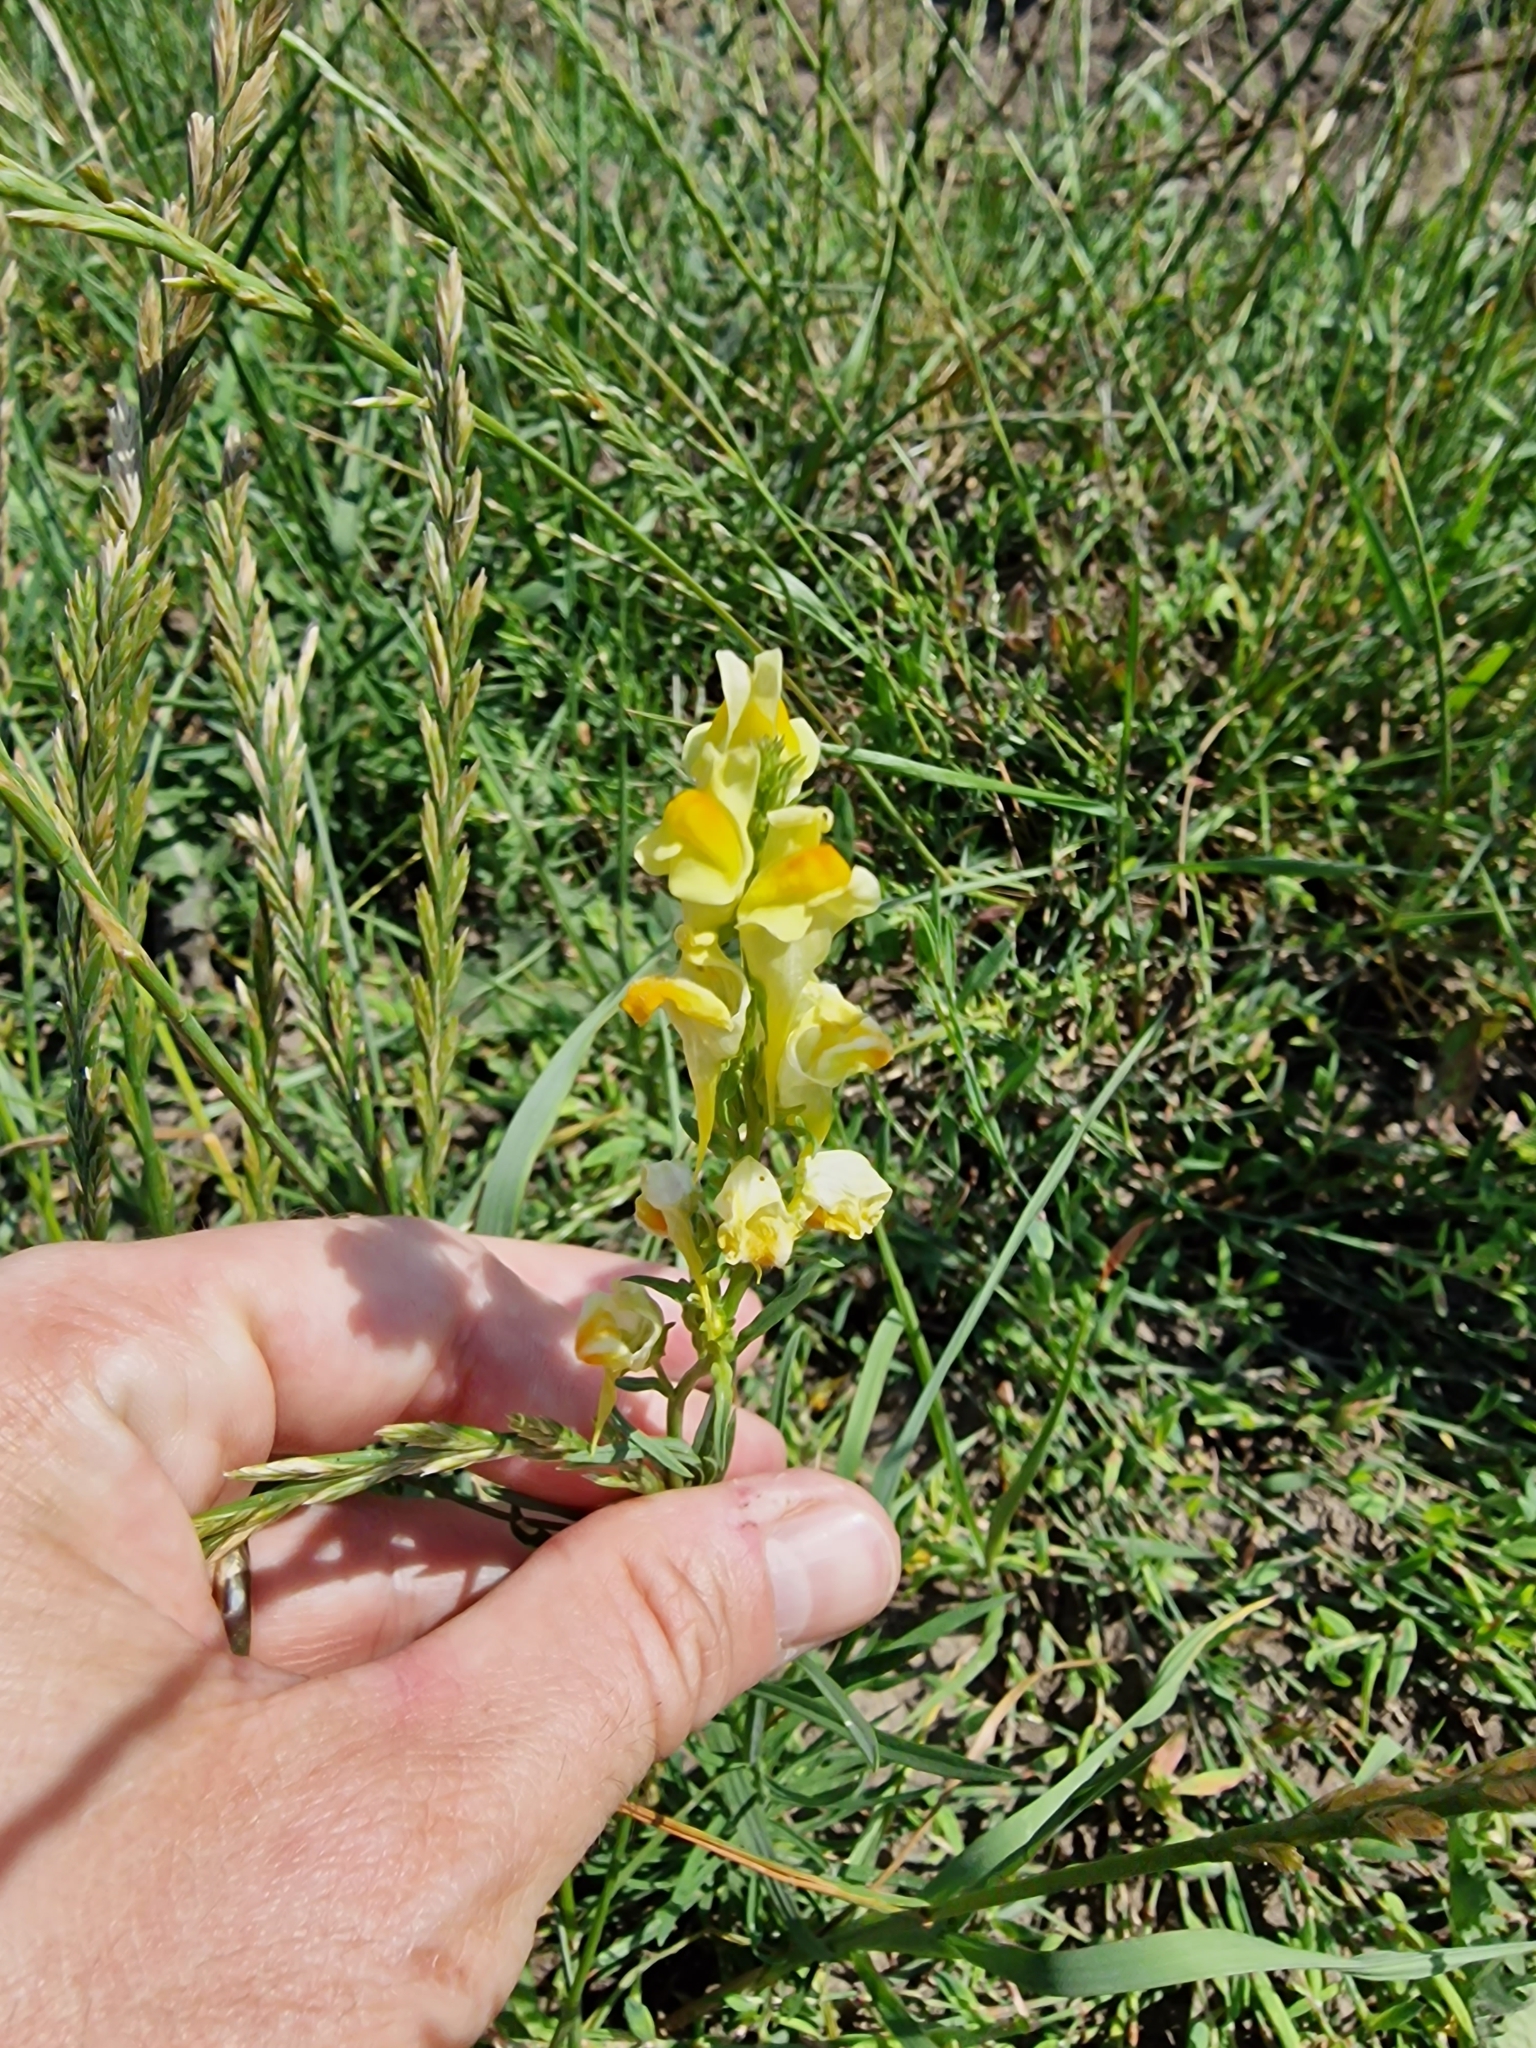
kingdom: Plantae
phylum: Tracheophyta
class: Magnoliopsida
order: Lamiales
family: Plantaginaceae
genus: Linaria
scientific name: Linaria vulgaris
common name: Butter and eggs
